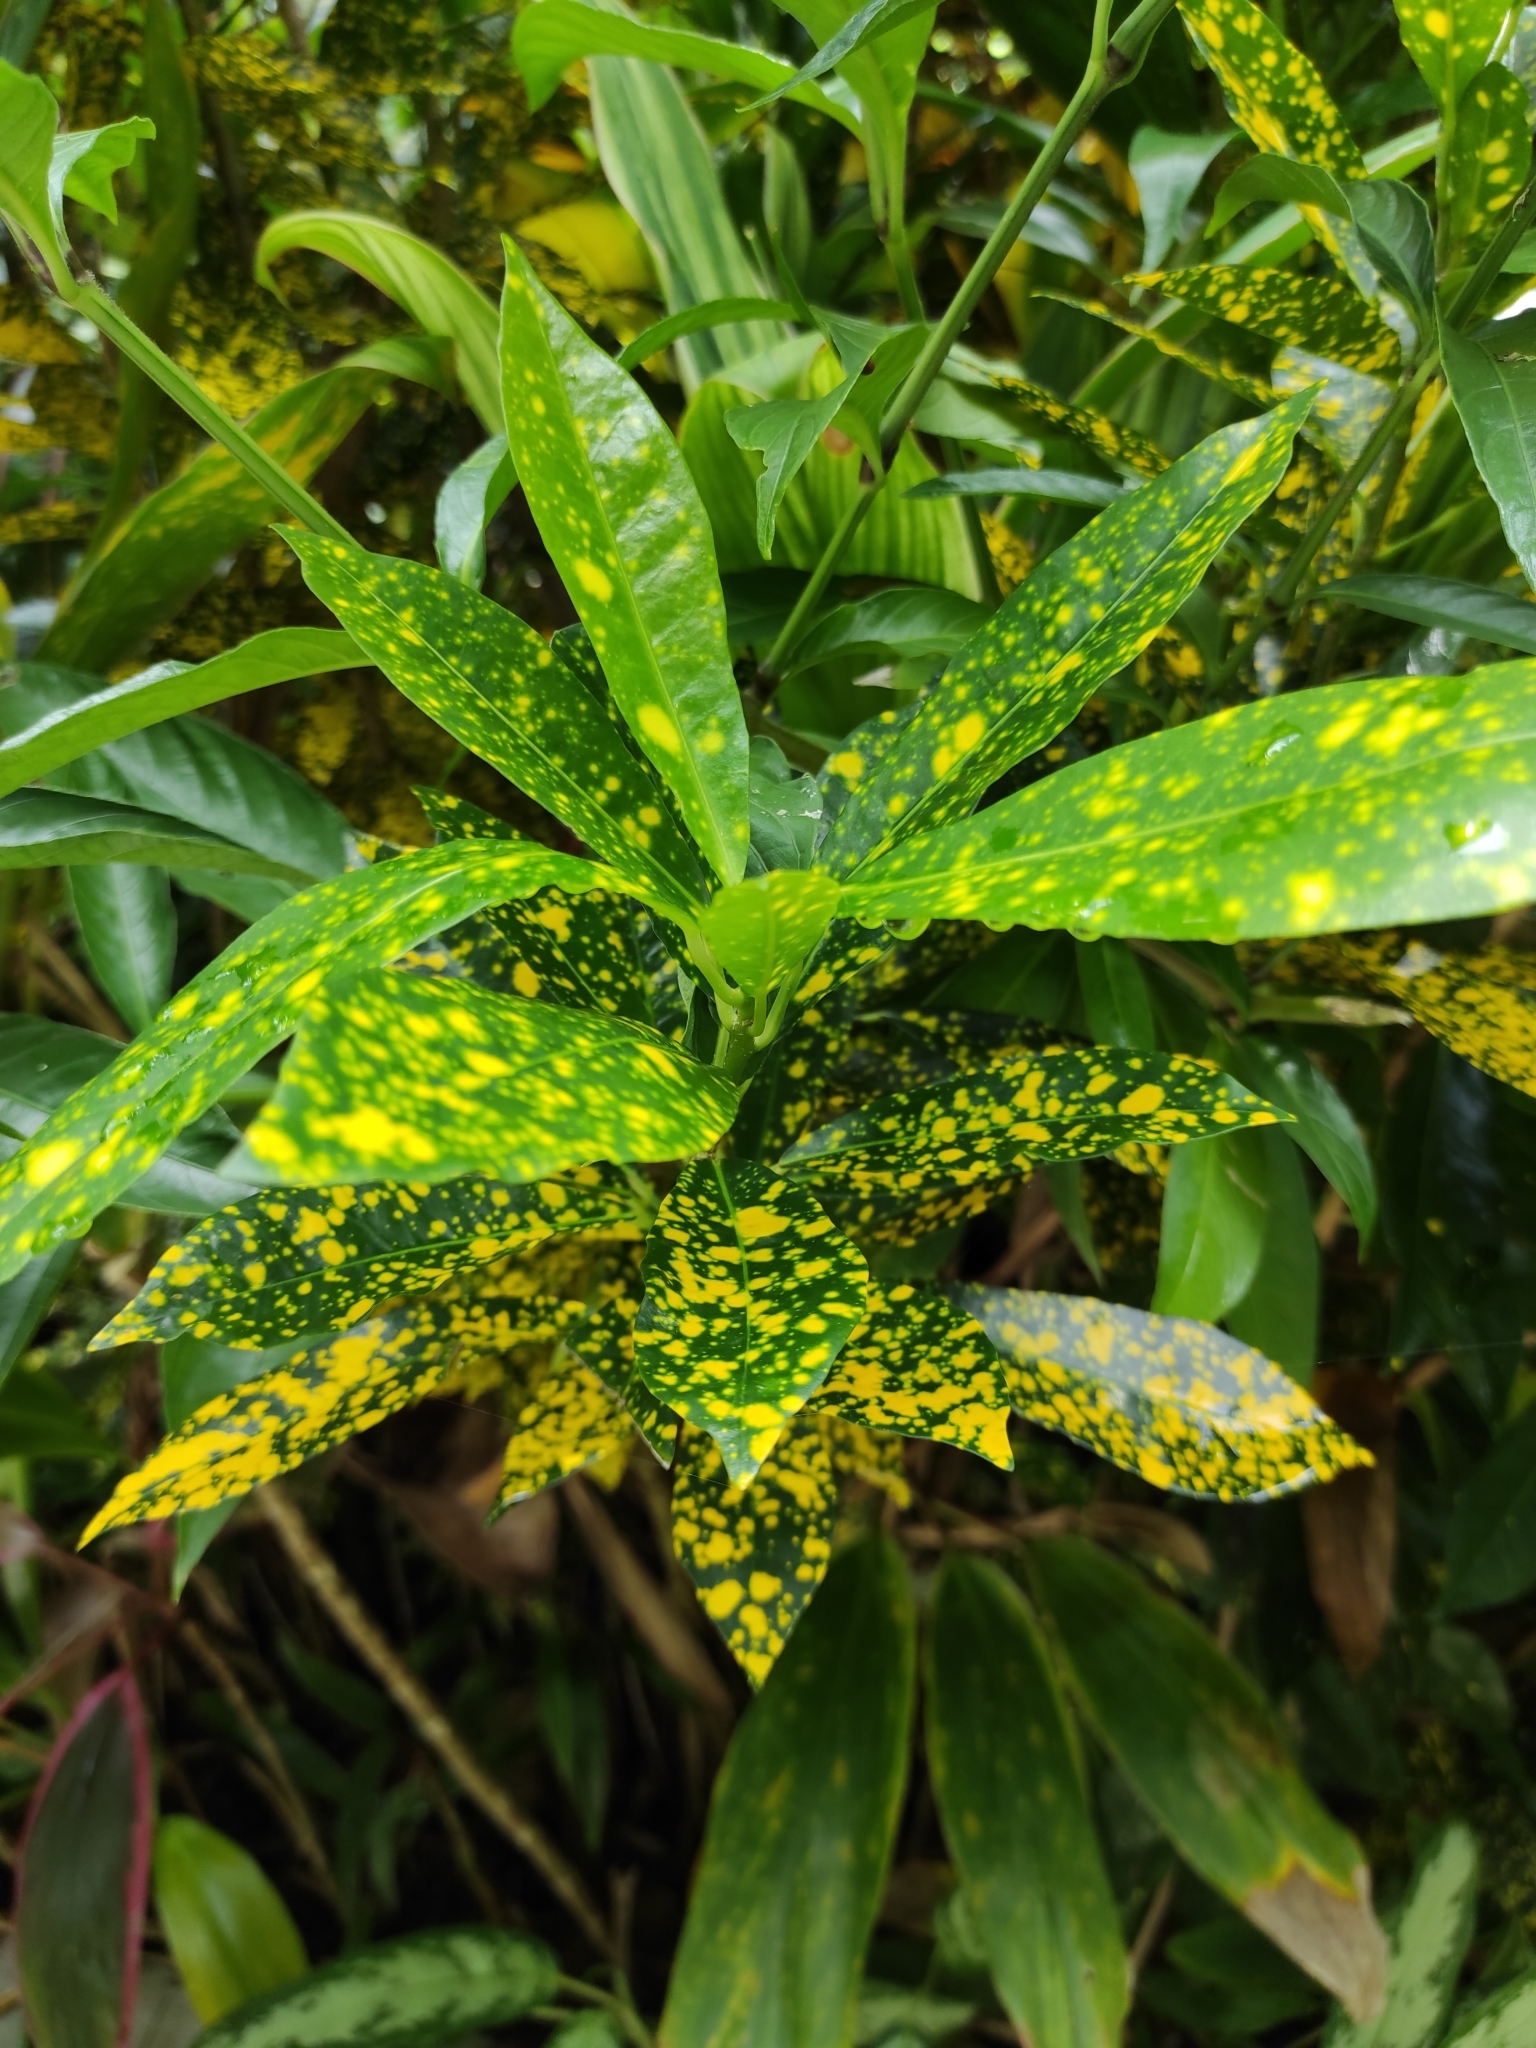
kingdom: Plantae
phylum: Tracheophyta
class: Magnoliopsida
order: Malpighiales
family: Euphorbiaceae
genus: Codiaeum
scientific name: Codiaeum variegatum
